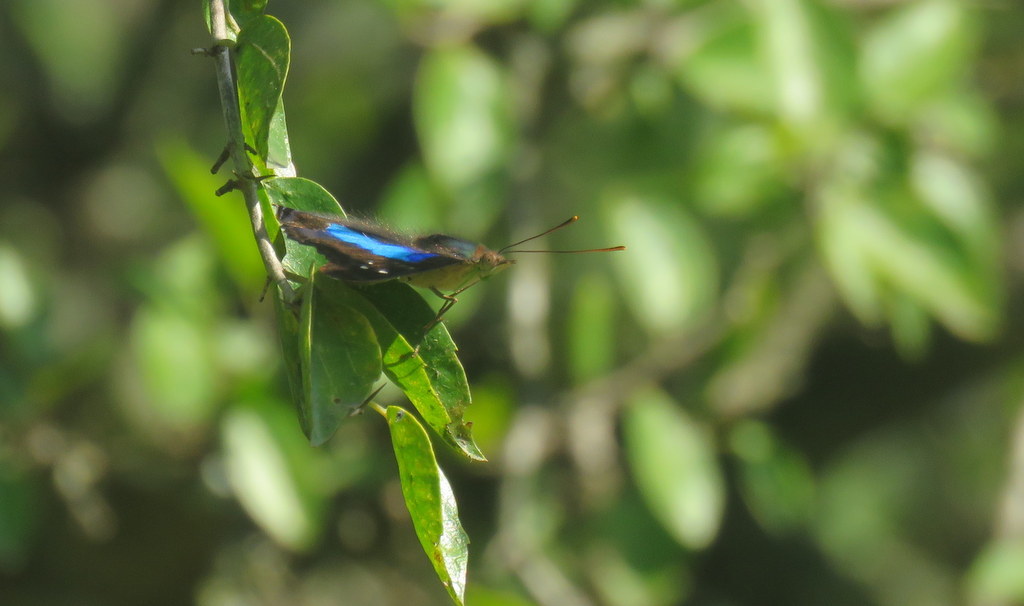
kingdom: Animalia
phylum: Arthropoda
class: Insecta
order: Lepidoptera
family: Nymphalidae
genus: Doxocopa
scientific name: Doxocopa laurentia
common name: Turquoise emperor
